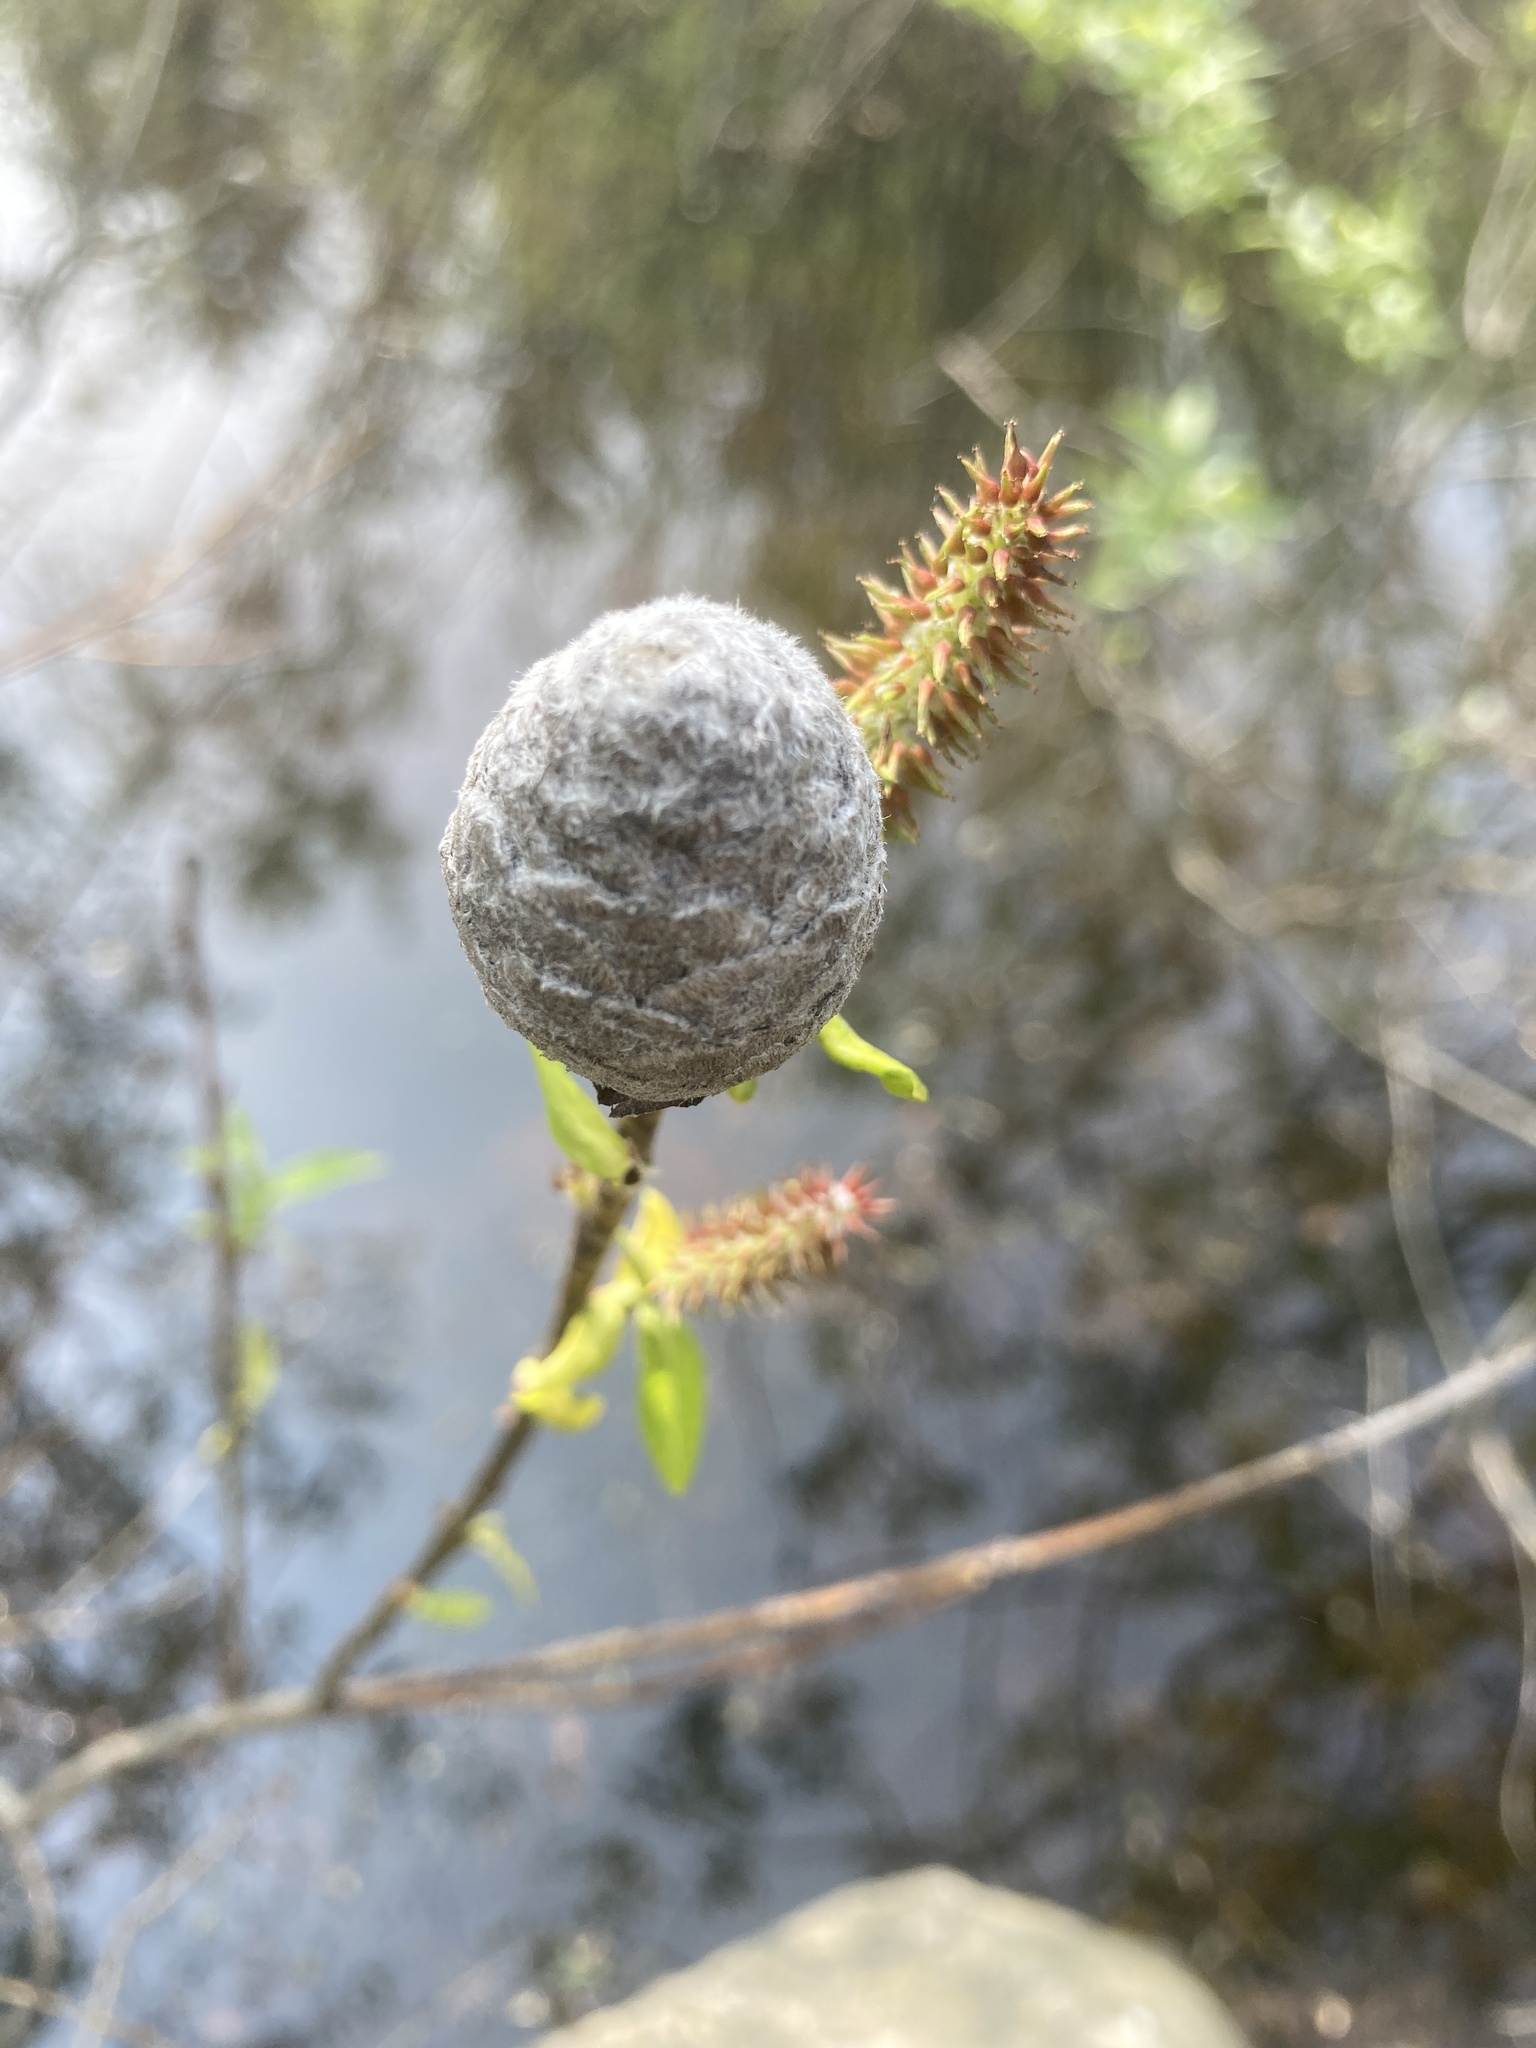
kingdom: Animalia
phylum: Arthropoda
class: Insecta
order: Diptera
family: Cecidomyiidae
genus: Rabdophaga
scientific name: Rabdophaga strobiloides
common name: Willow pinecone gall midge
